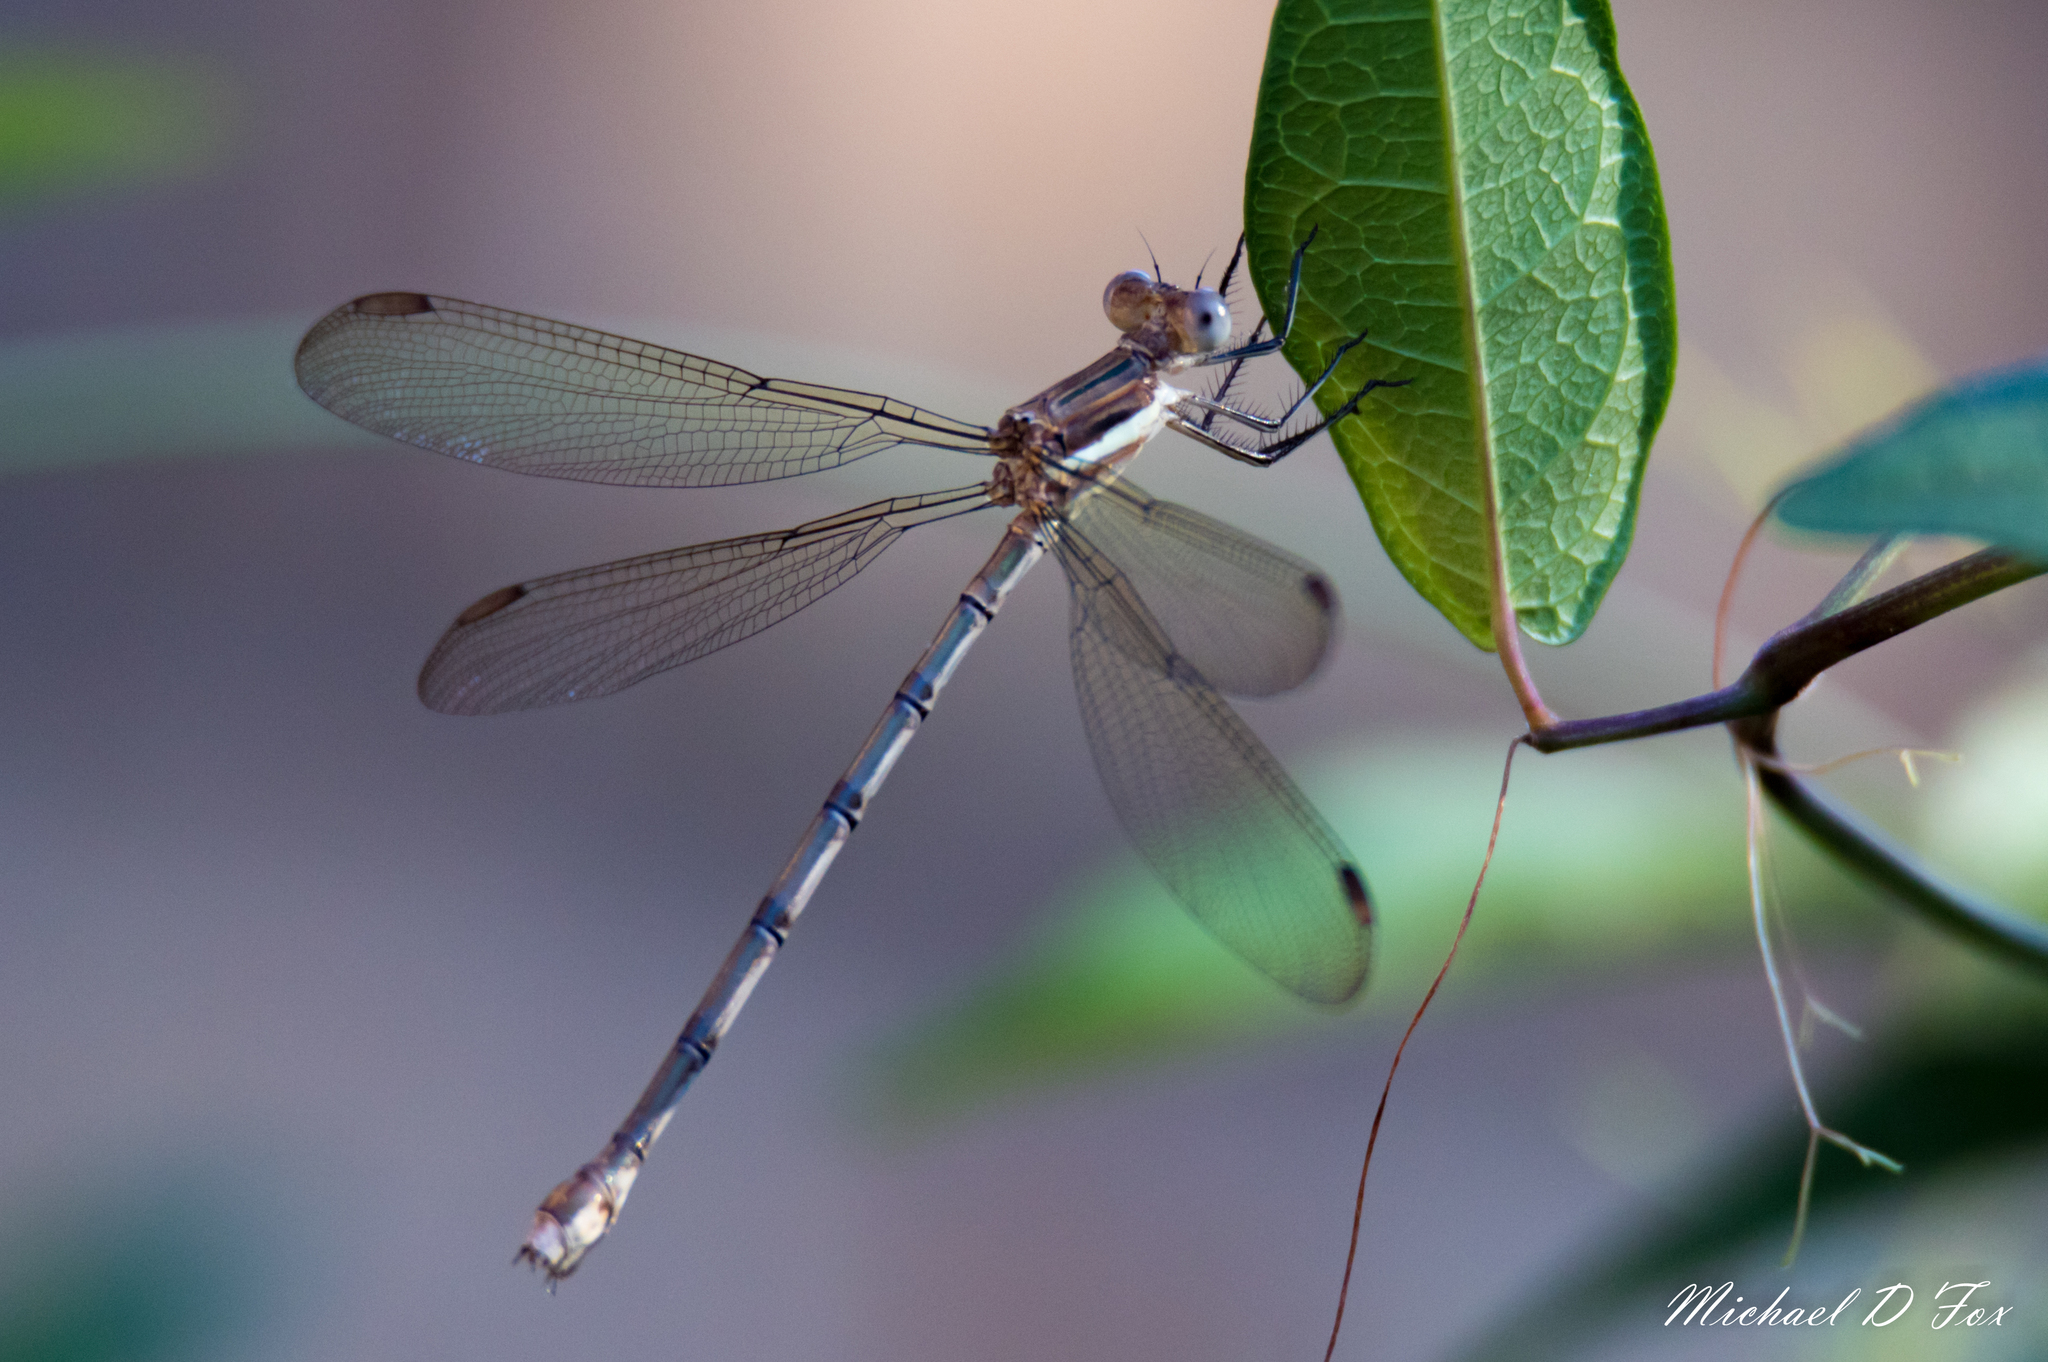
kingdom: Animalia
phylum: Arthropoda
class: Insecta
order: Odonata
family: Lestidae
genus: Archilestes
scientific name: Archilestes grandis
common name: Great spreadwing
